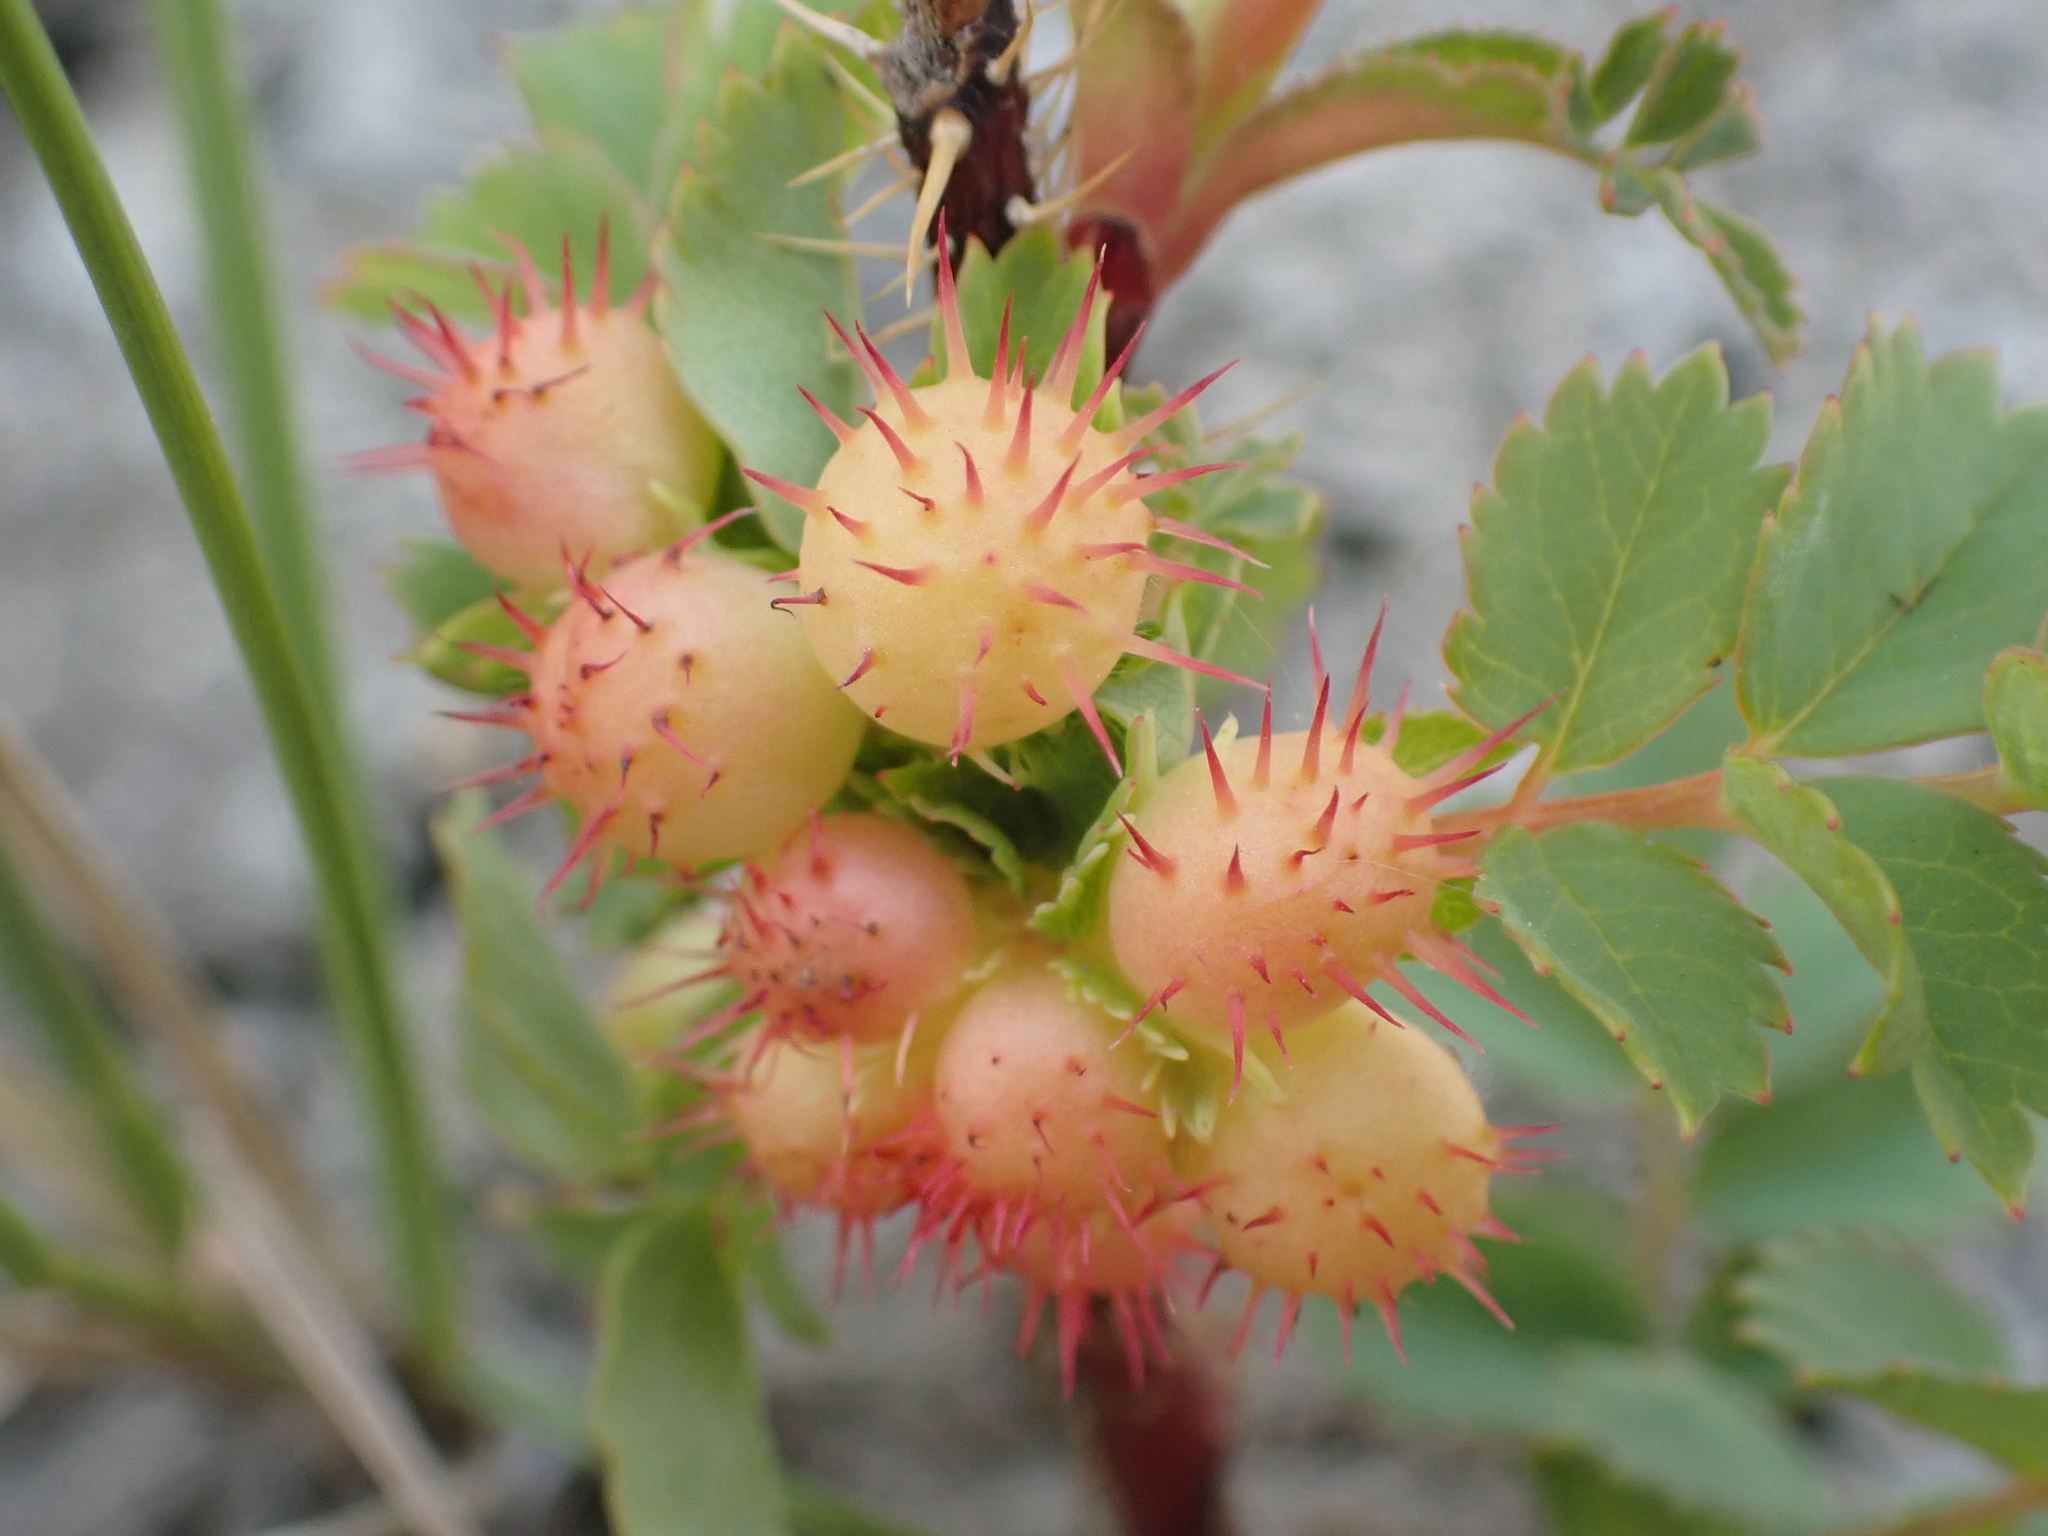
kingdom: Animalia
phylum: Arthropoda
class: Insecta
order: Hymenoptera
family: Cynipidae
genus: Diplolepis
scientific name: Diplolepis polita
